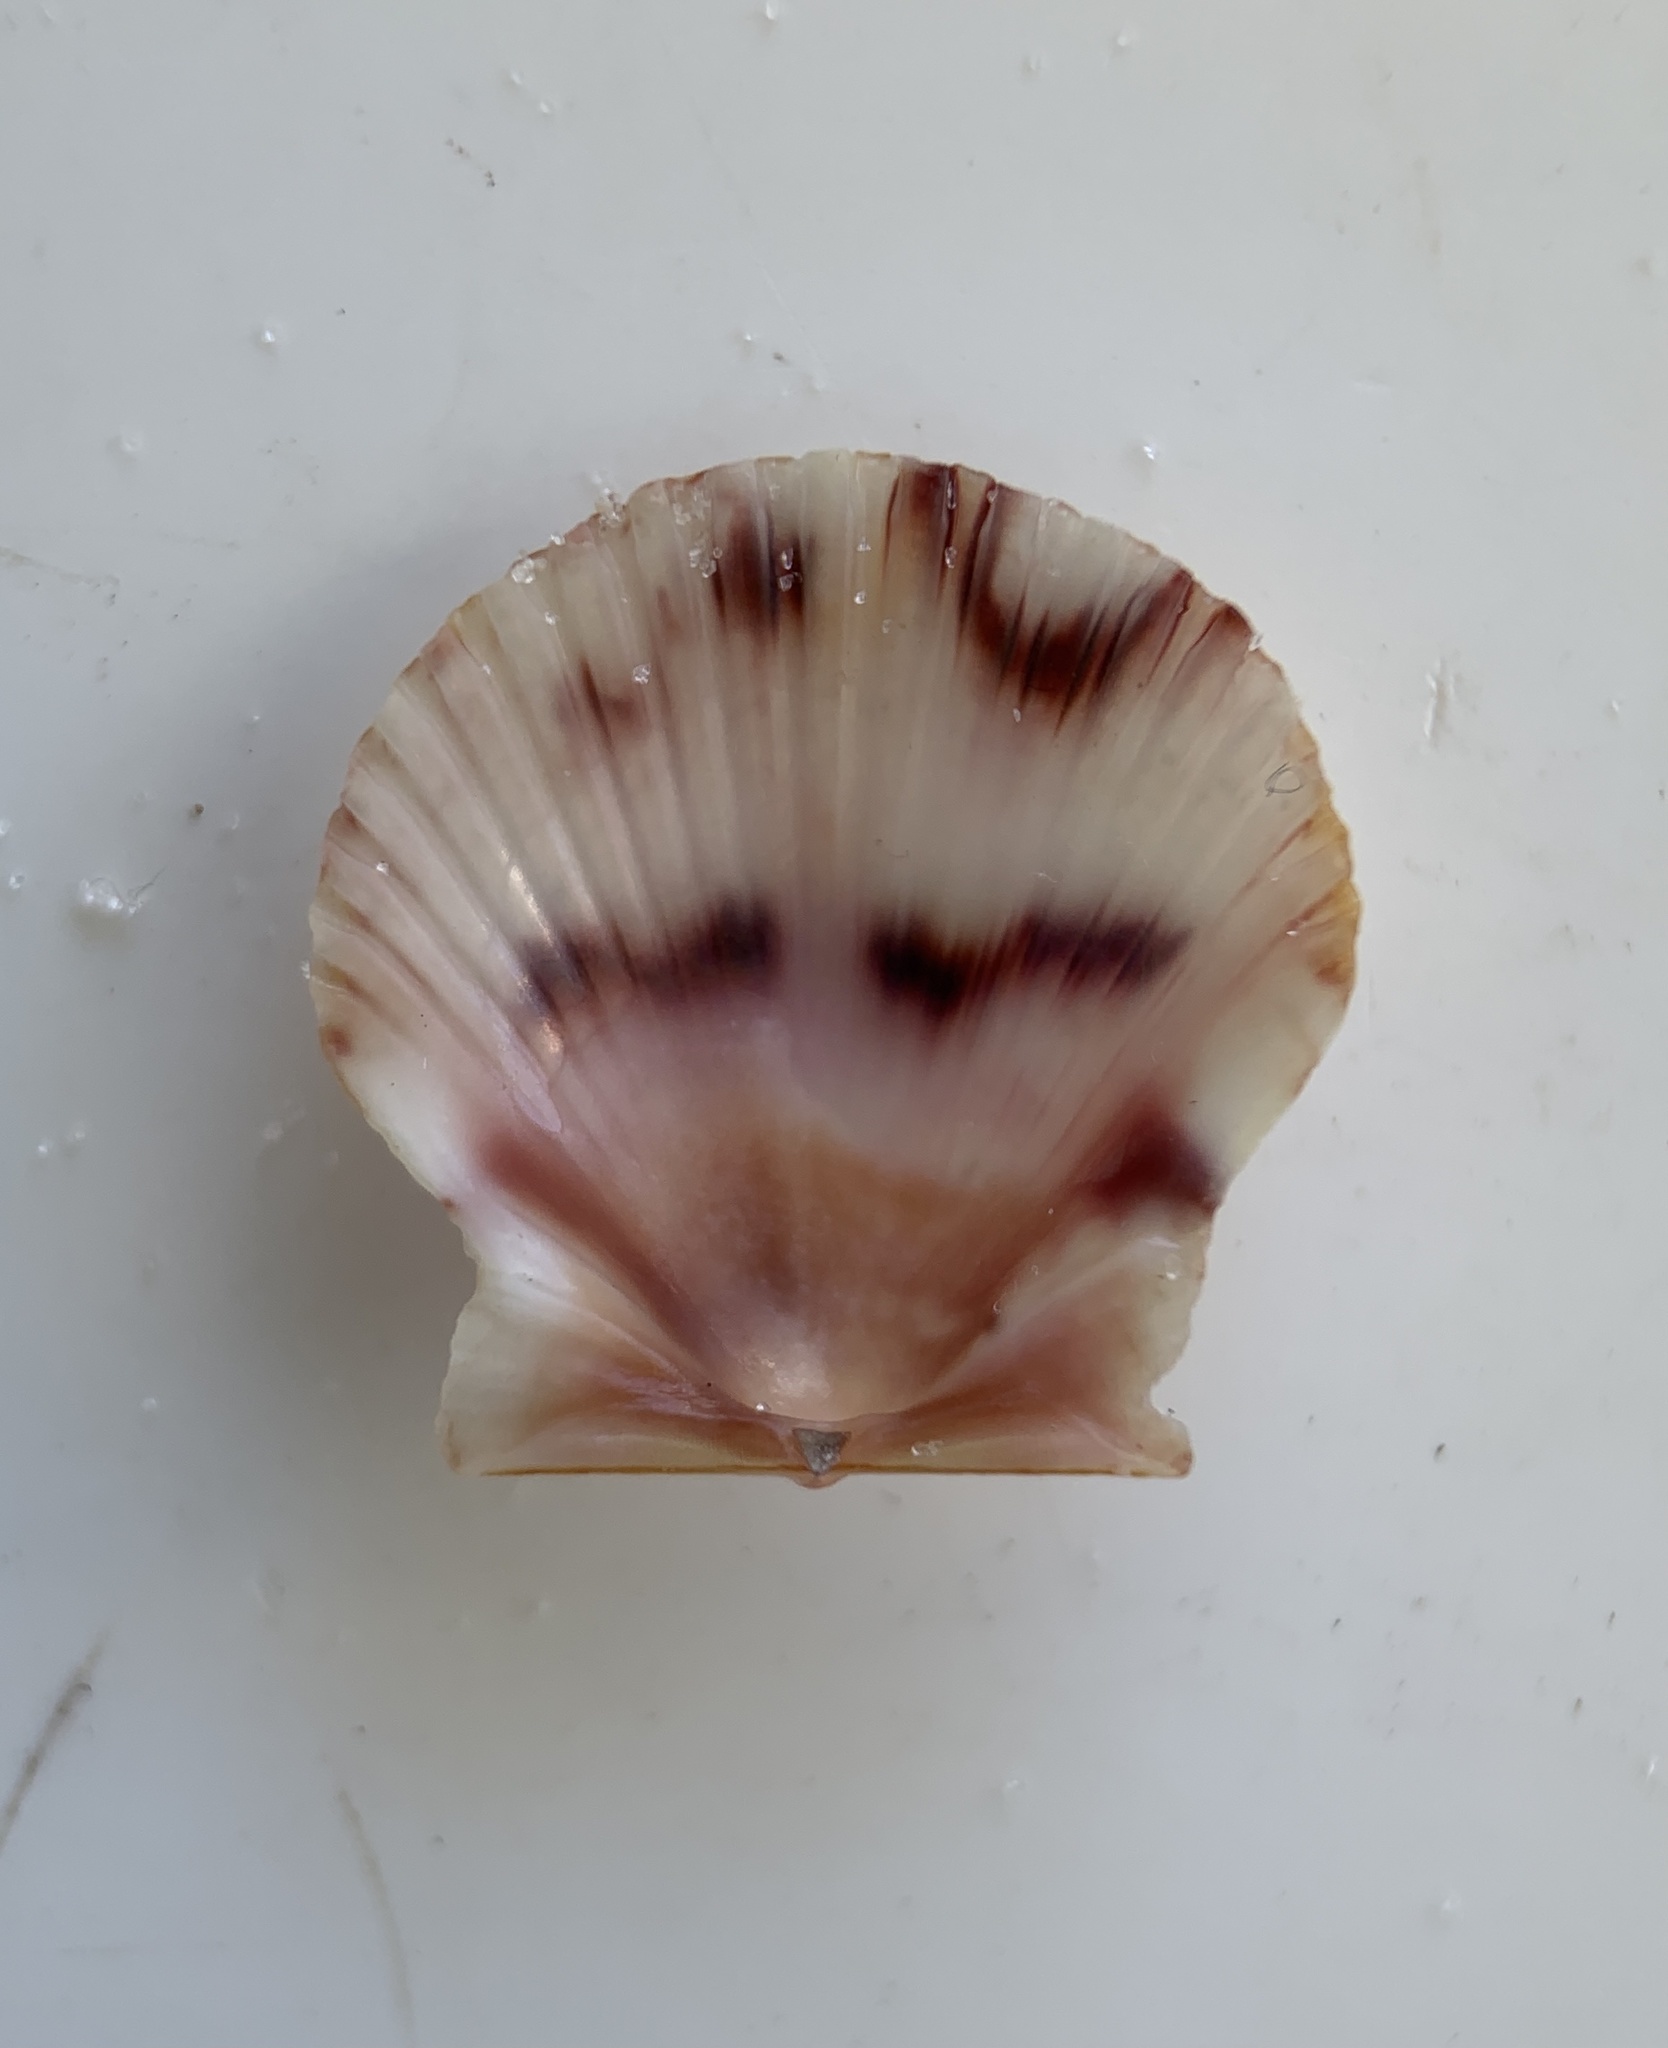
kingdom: Animalia
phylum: Mollusca
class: Bivalvia
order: Pectinida
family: Pectinidae
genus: Argopecten
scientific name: Argopecten gibbus
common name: Atlantic calico scallop
